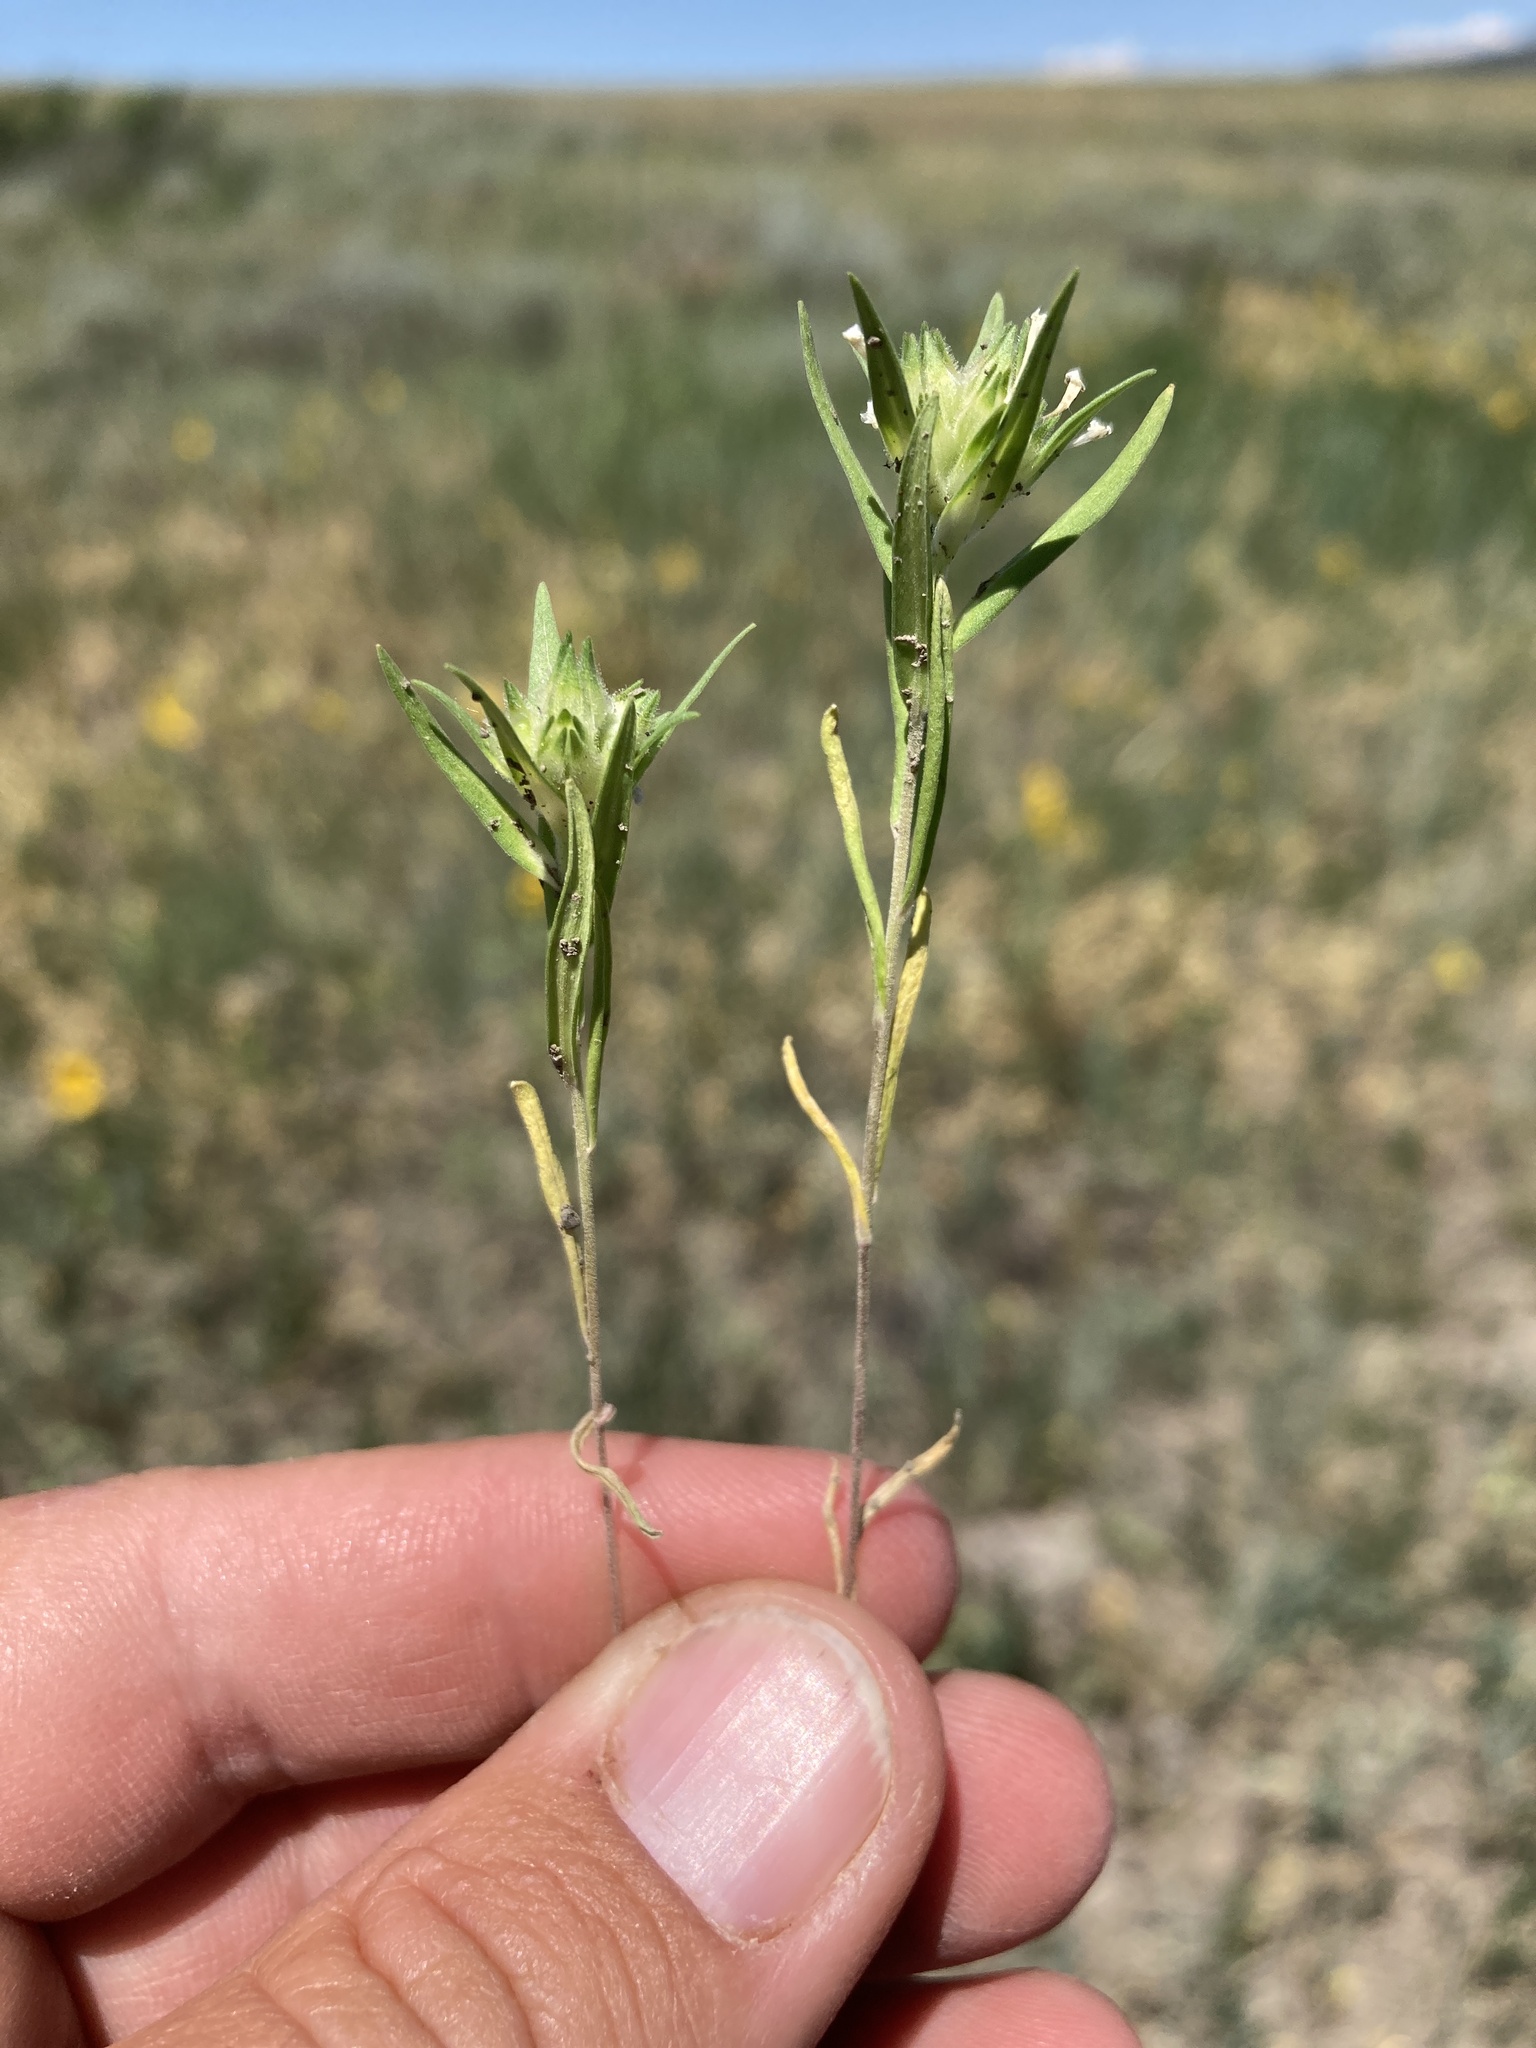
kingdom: Plantae
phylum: Tracheophyta
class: Magnoliopsida
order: Ericales
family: Polemoniaceae
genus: Collomia
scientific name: Collomia linearis
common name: Tiny trumpet
